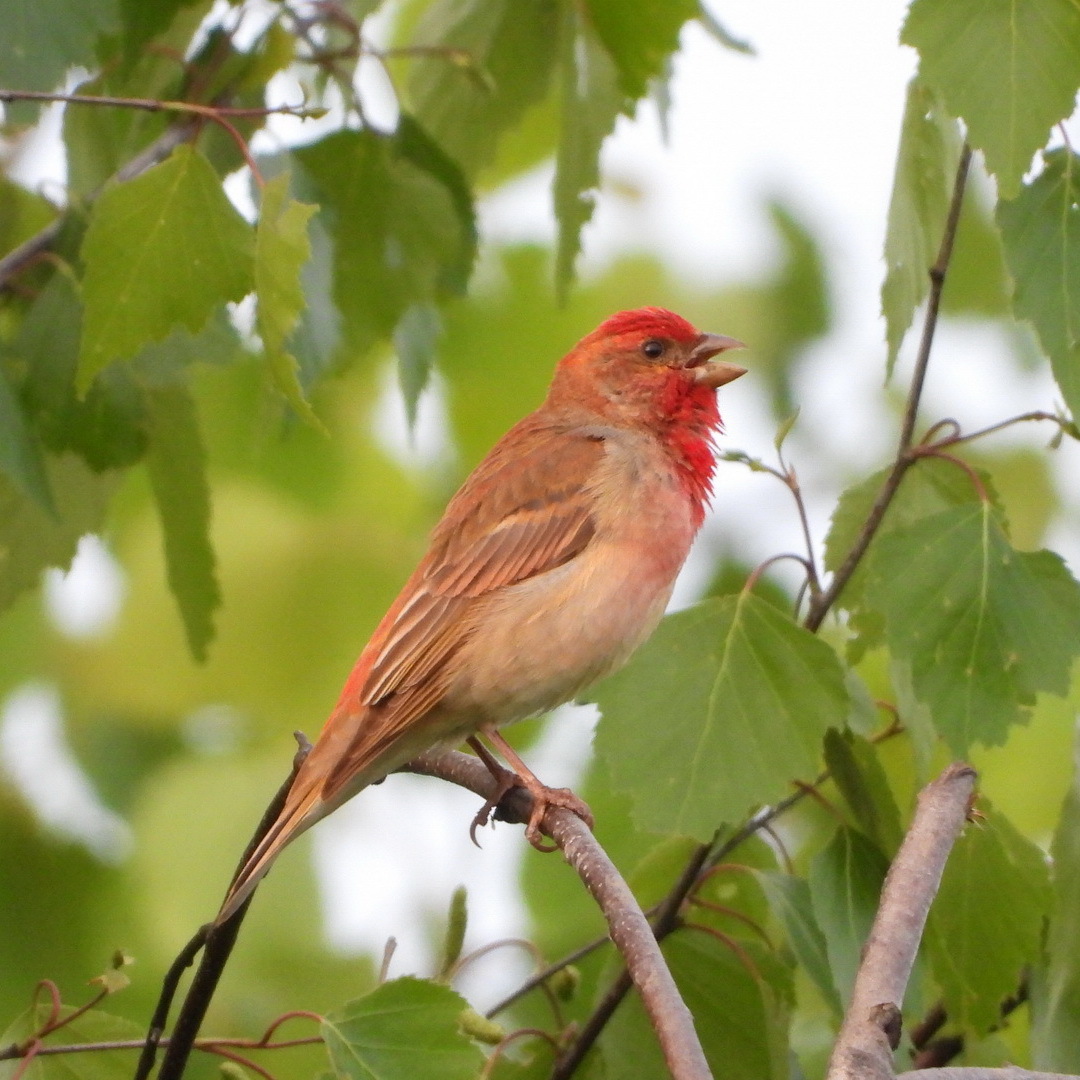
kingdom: Animalia
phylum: Chordata
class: Aves
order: Passeriformes
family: Fringillidae
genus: Carpodacus
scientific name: Carpodacus erythrinus
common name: Common rosefinch
